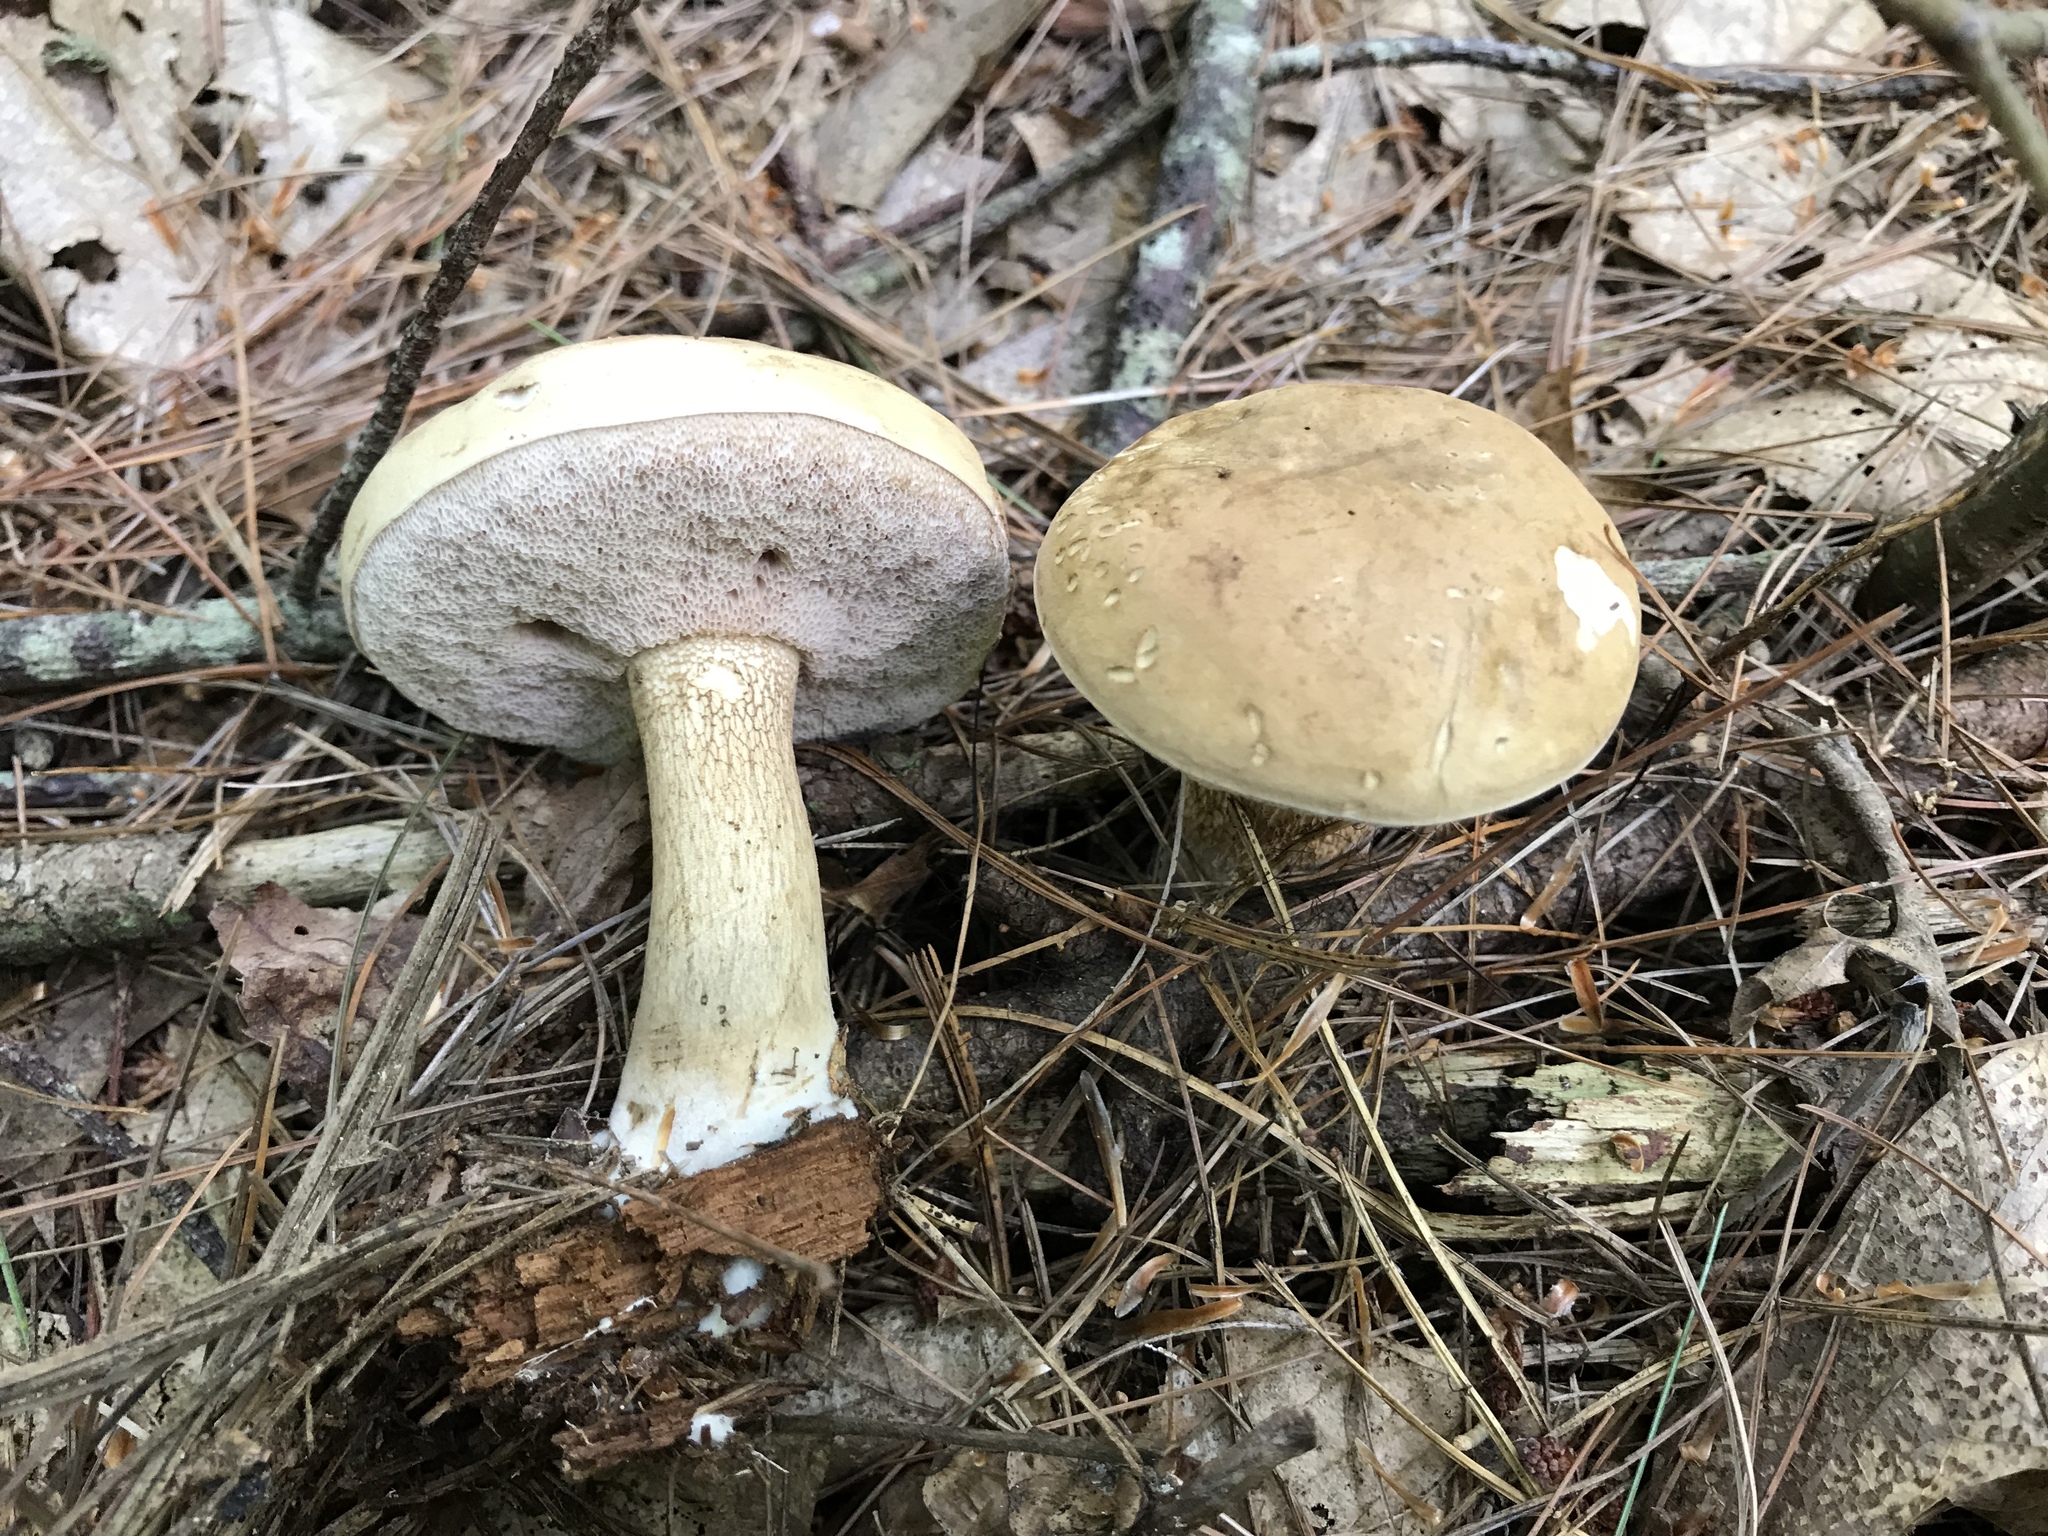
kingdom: Fungi
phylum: Basidiomycota
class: Agaricomycetes
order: Boletales
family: Boletaceae
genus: Tylopilus
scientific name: Tylopilus felleus
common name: Bitter bolete
